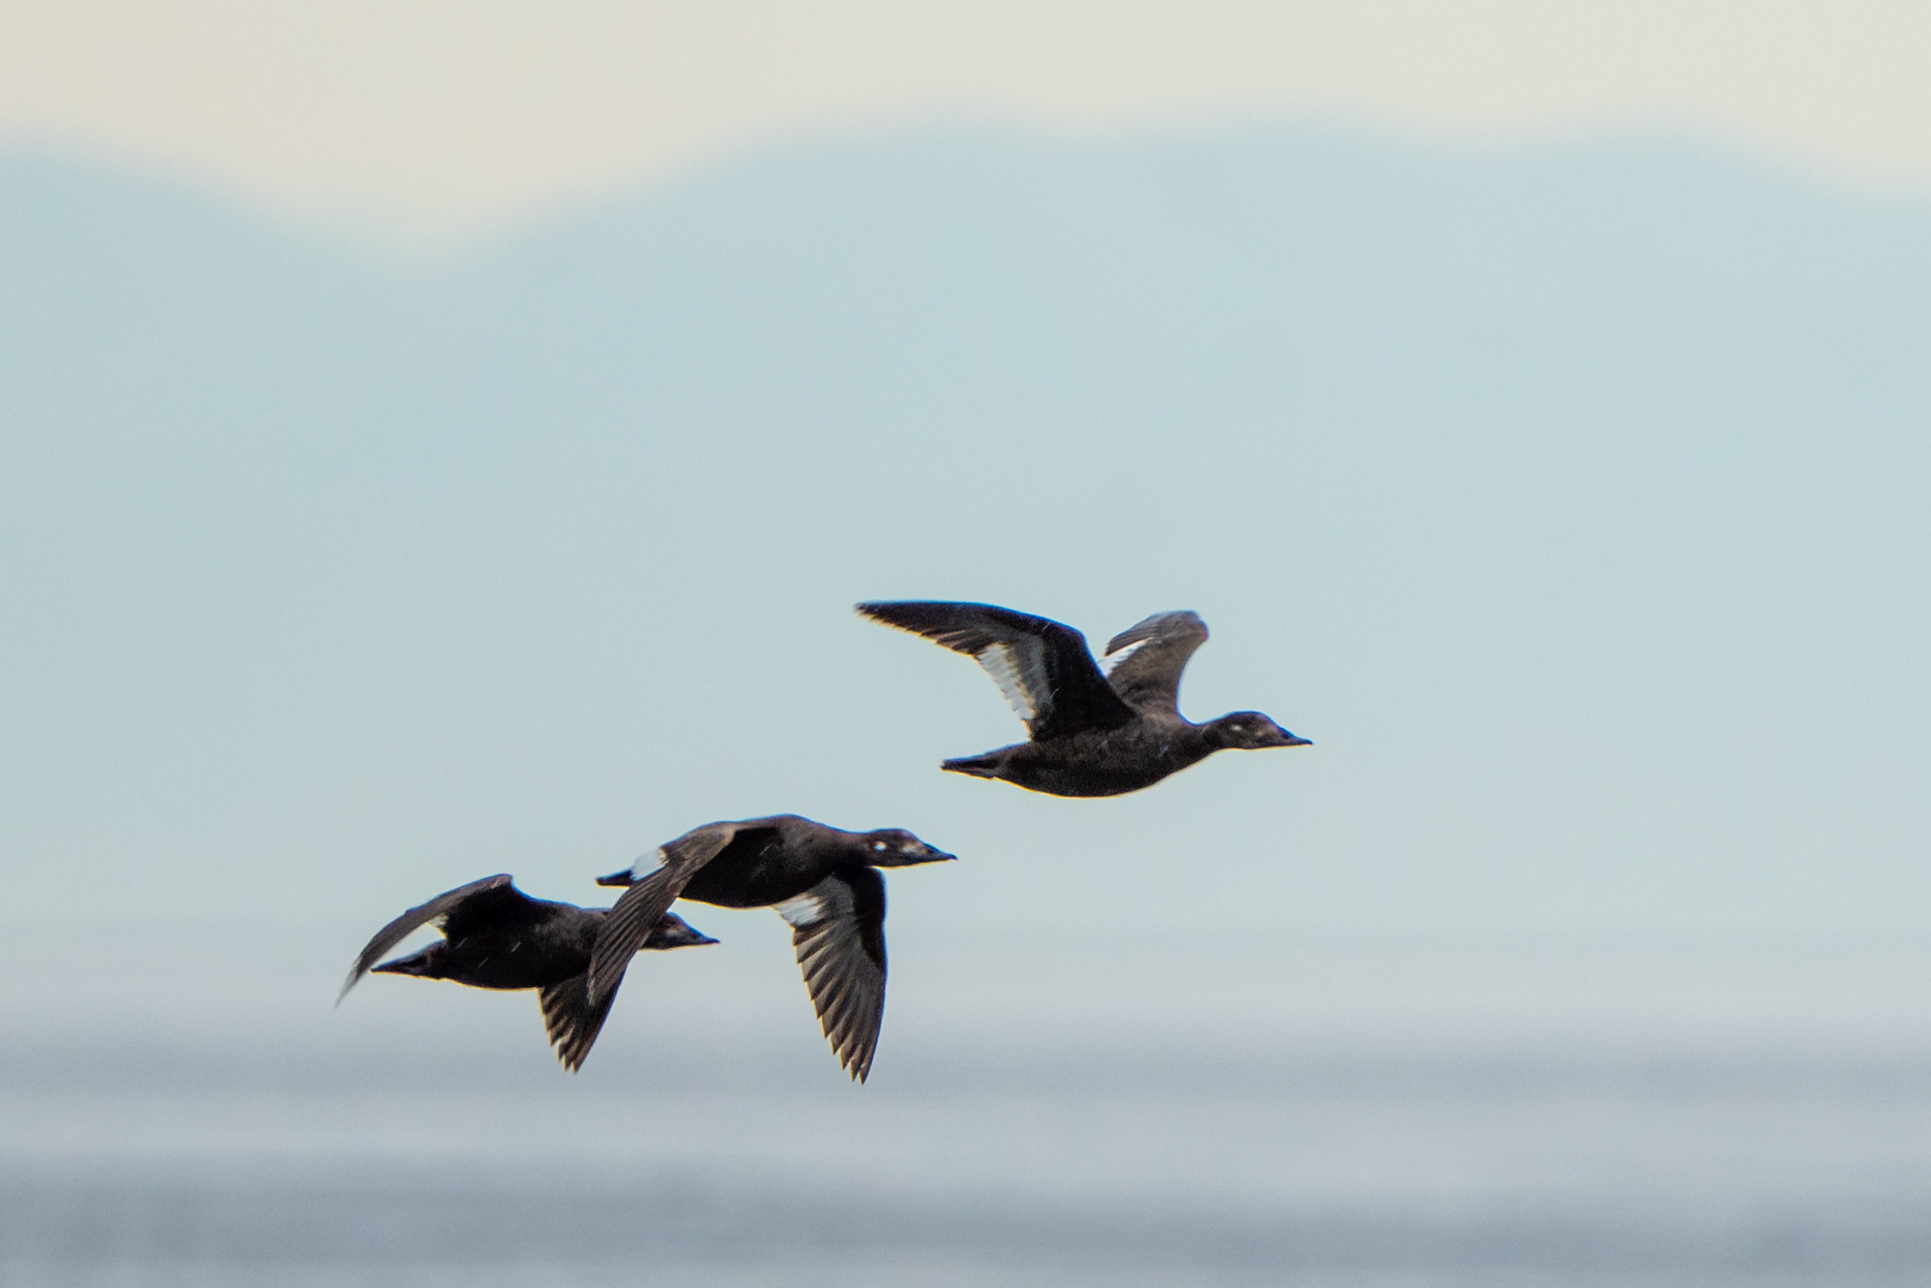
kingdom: Animalia
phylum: Chordata
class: Aves
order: Anseriformes
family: Anatidae
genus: Melanitta
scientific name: Melanitta deglandi
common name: White-winged scoter
